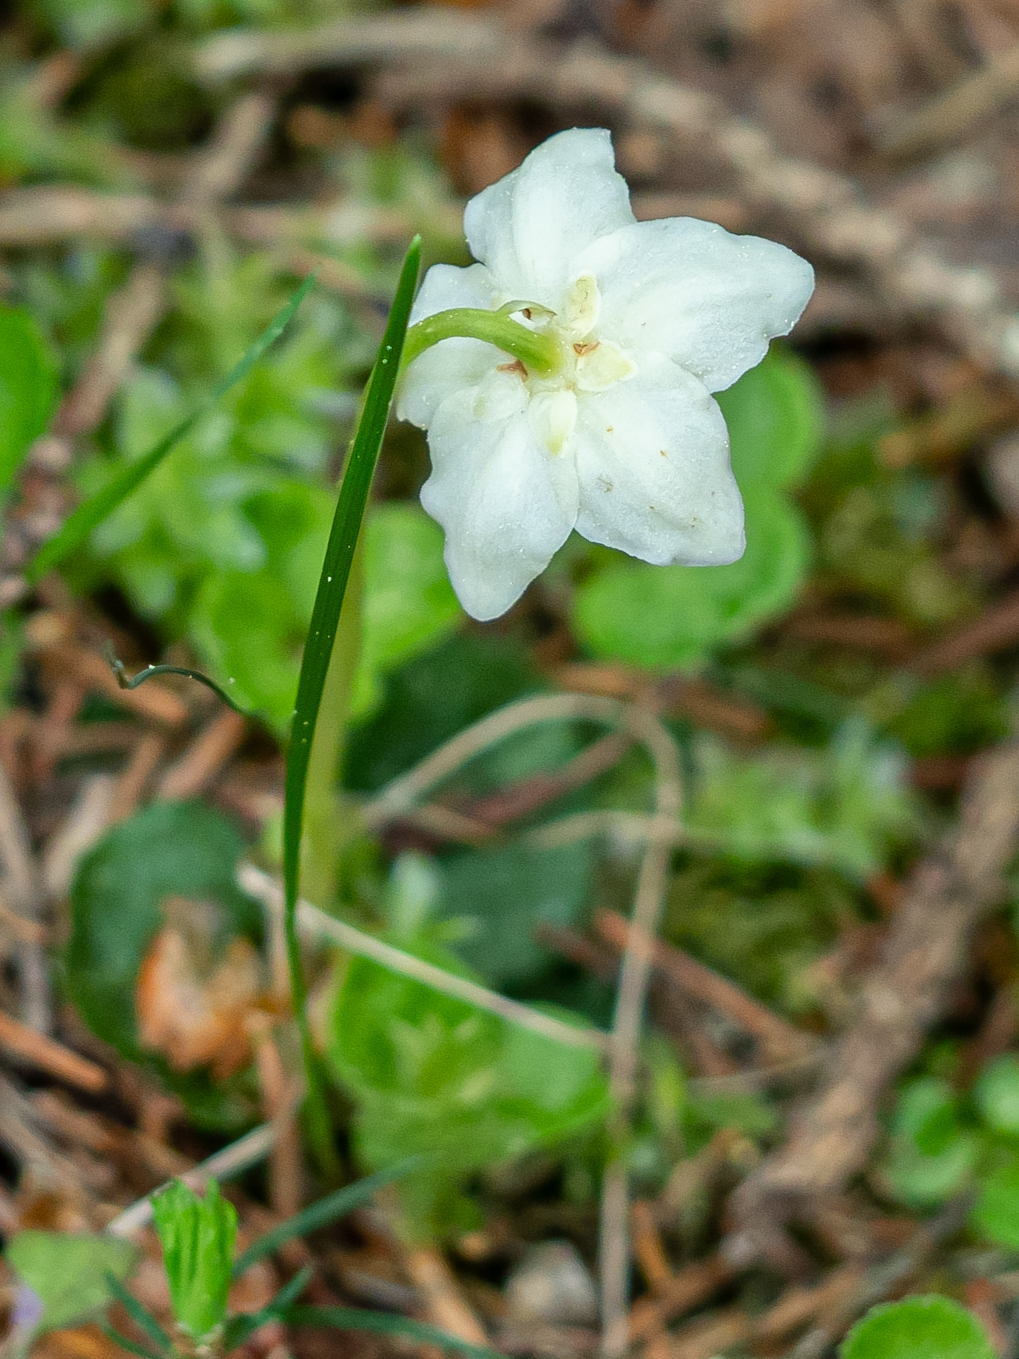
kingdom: Plantae
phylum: Tracheophyta
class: Magnoliopsida
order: Ericales
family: Ericaceae
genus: Moneses
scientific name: Moneses uniflora
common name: One-flowered wintergreen
